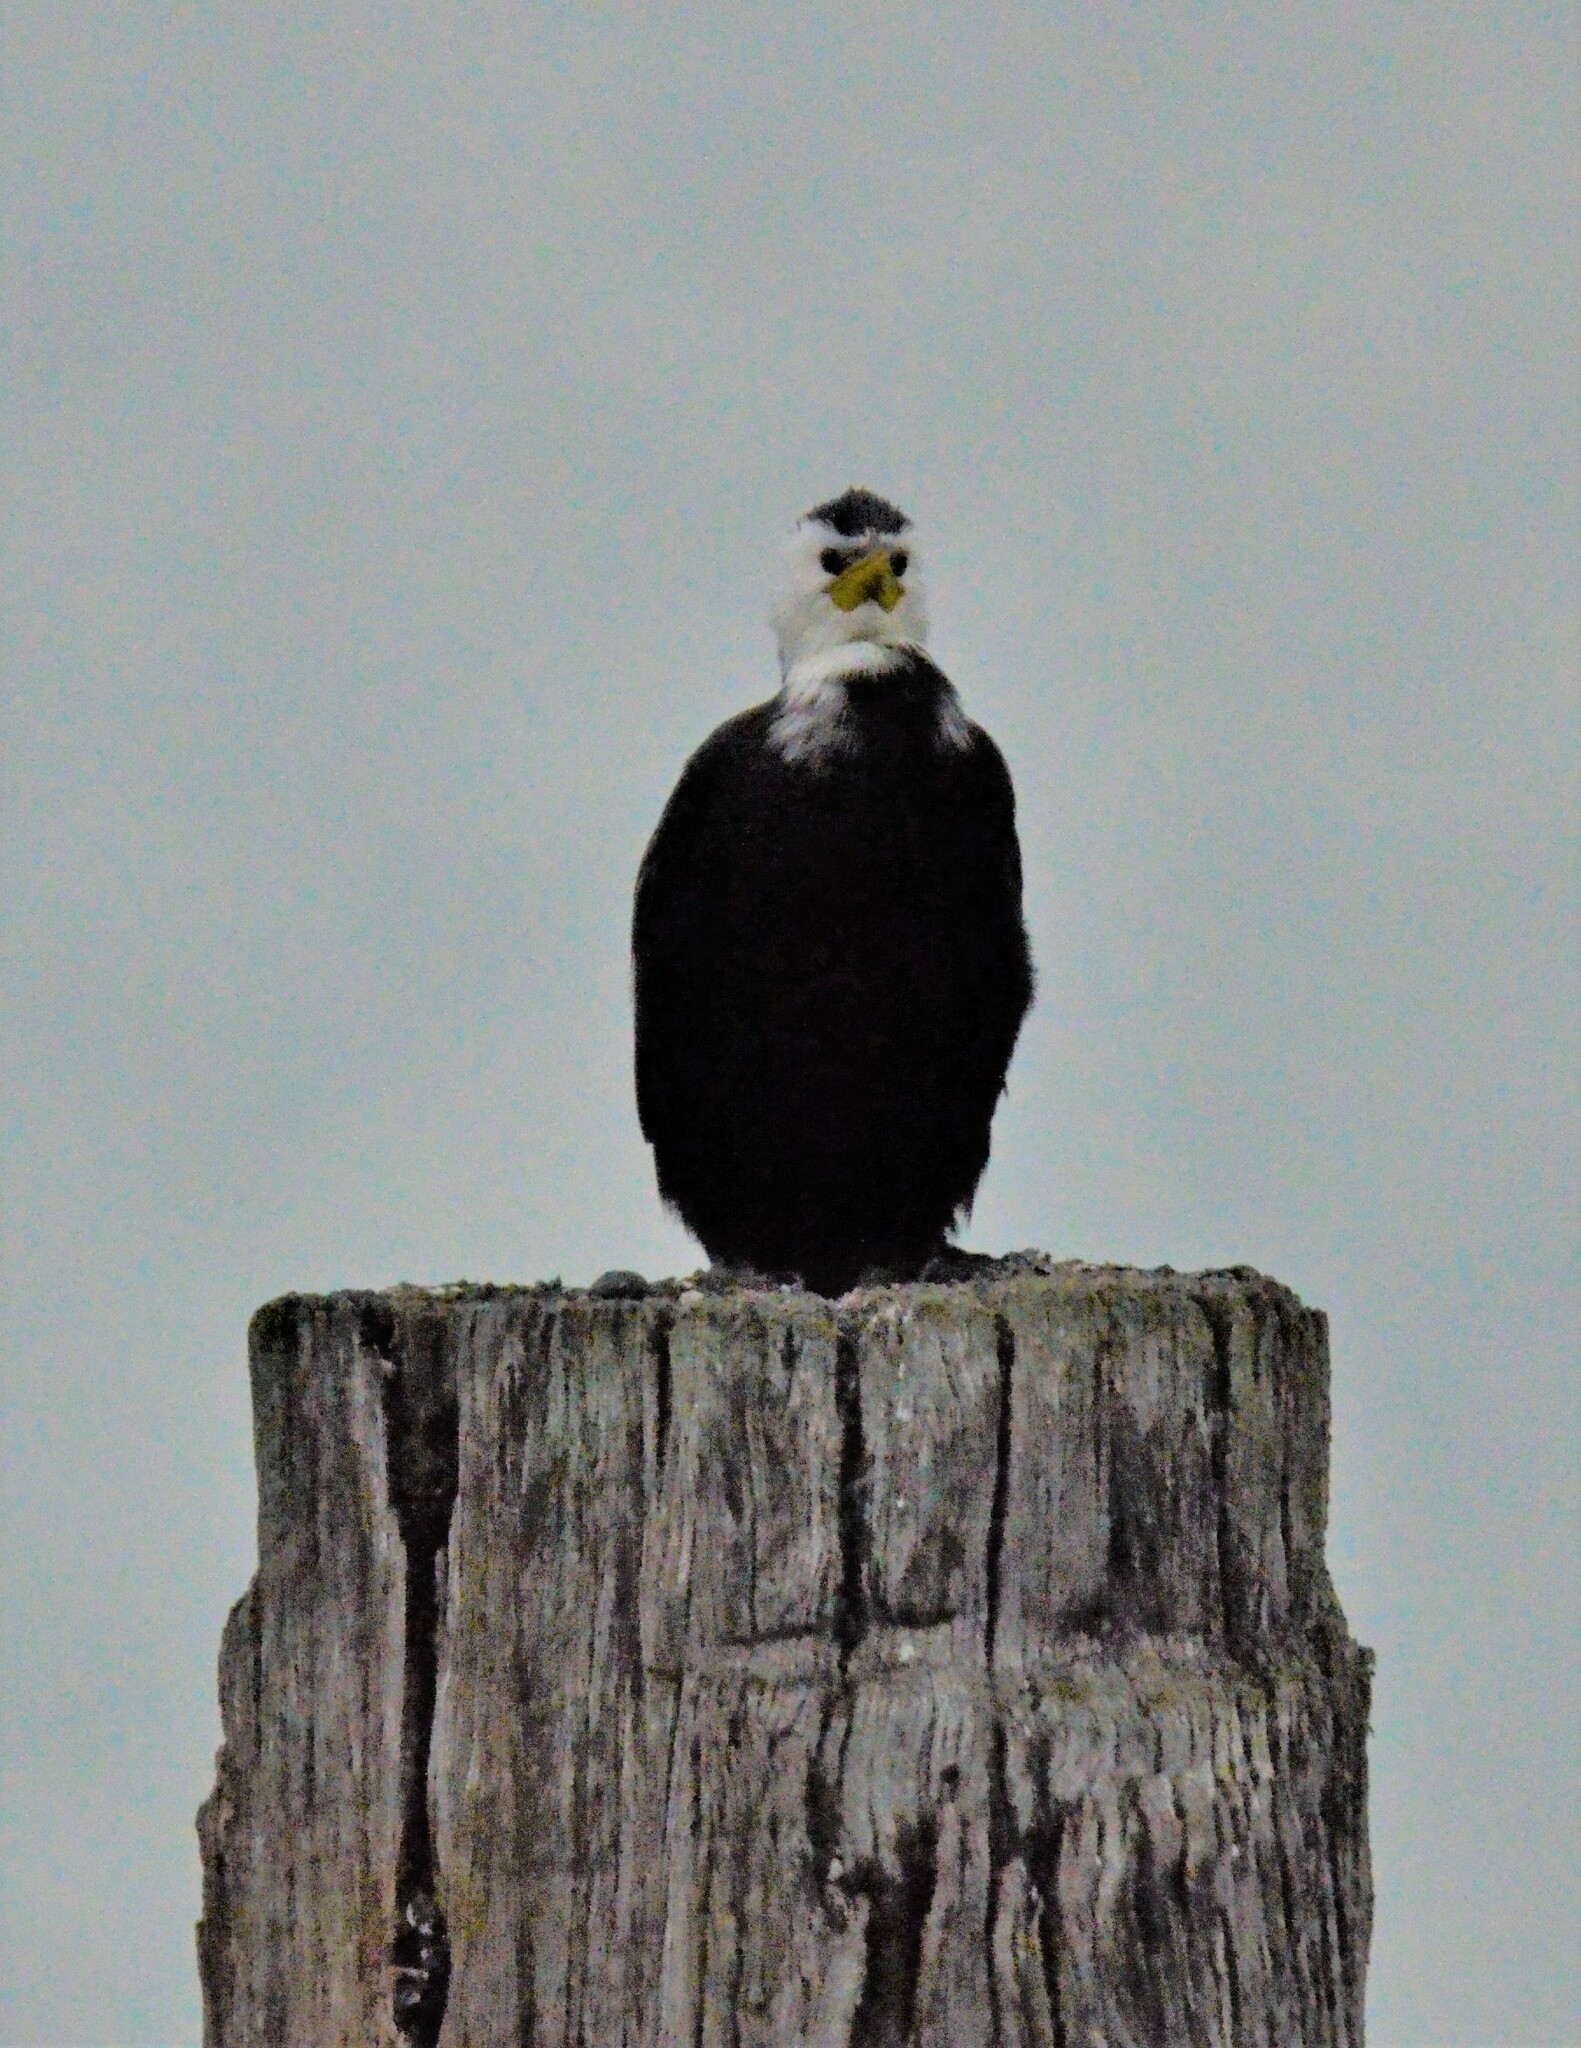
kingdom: Animalia
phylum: Chordata
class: Aves
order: Suliformes
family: Phalacrocoracidae
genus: Microcarbo
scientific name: Microcarbo melanoleucos
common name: Little pied cormorant
